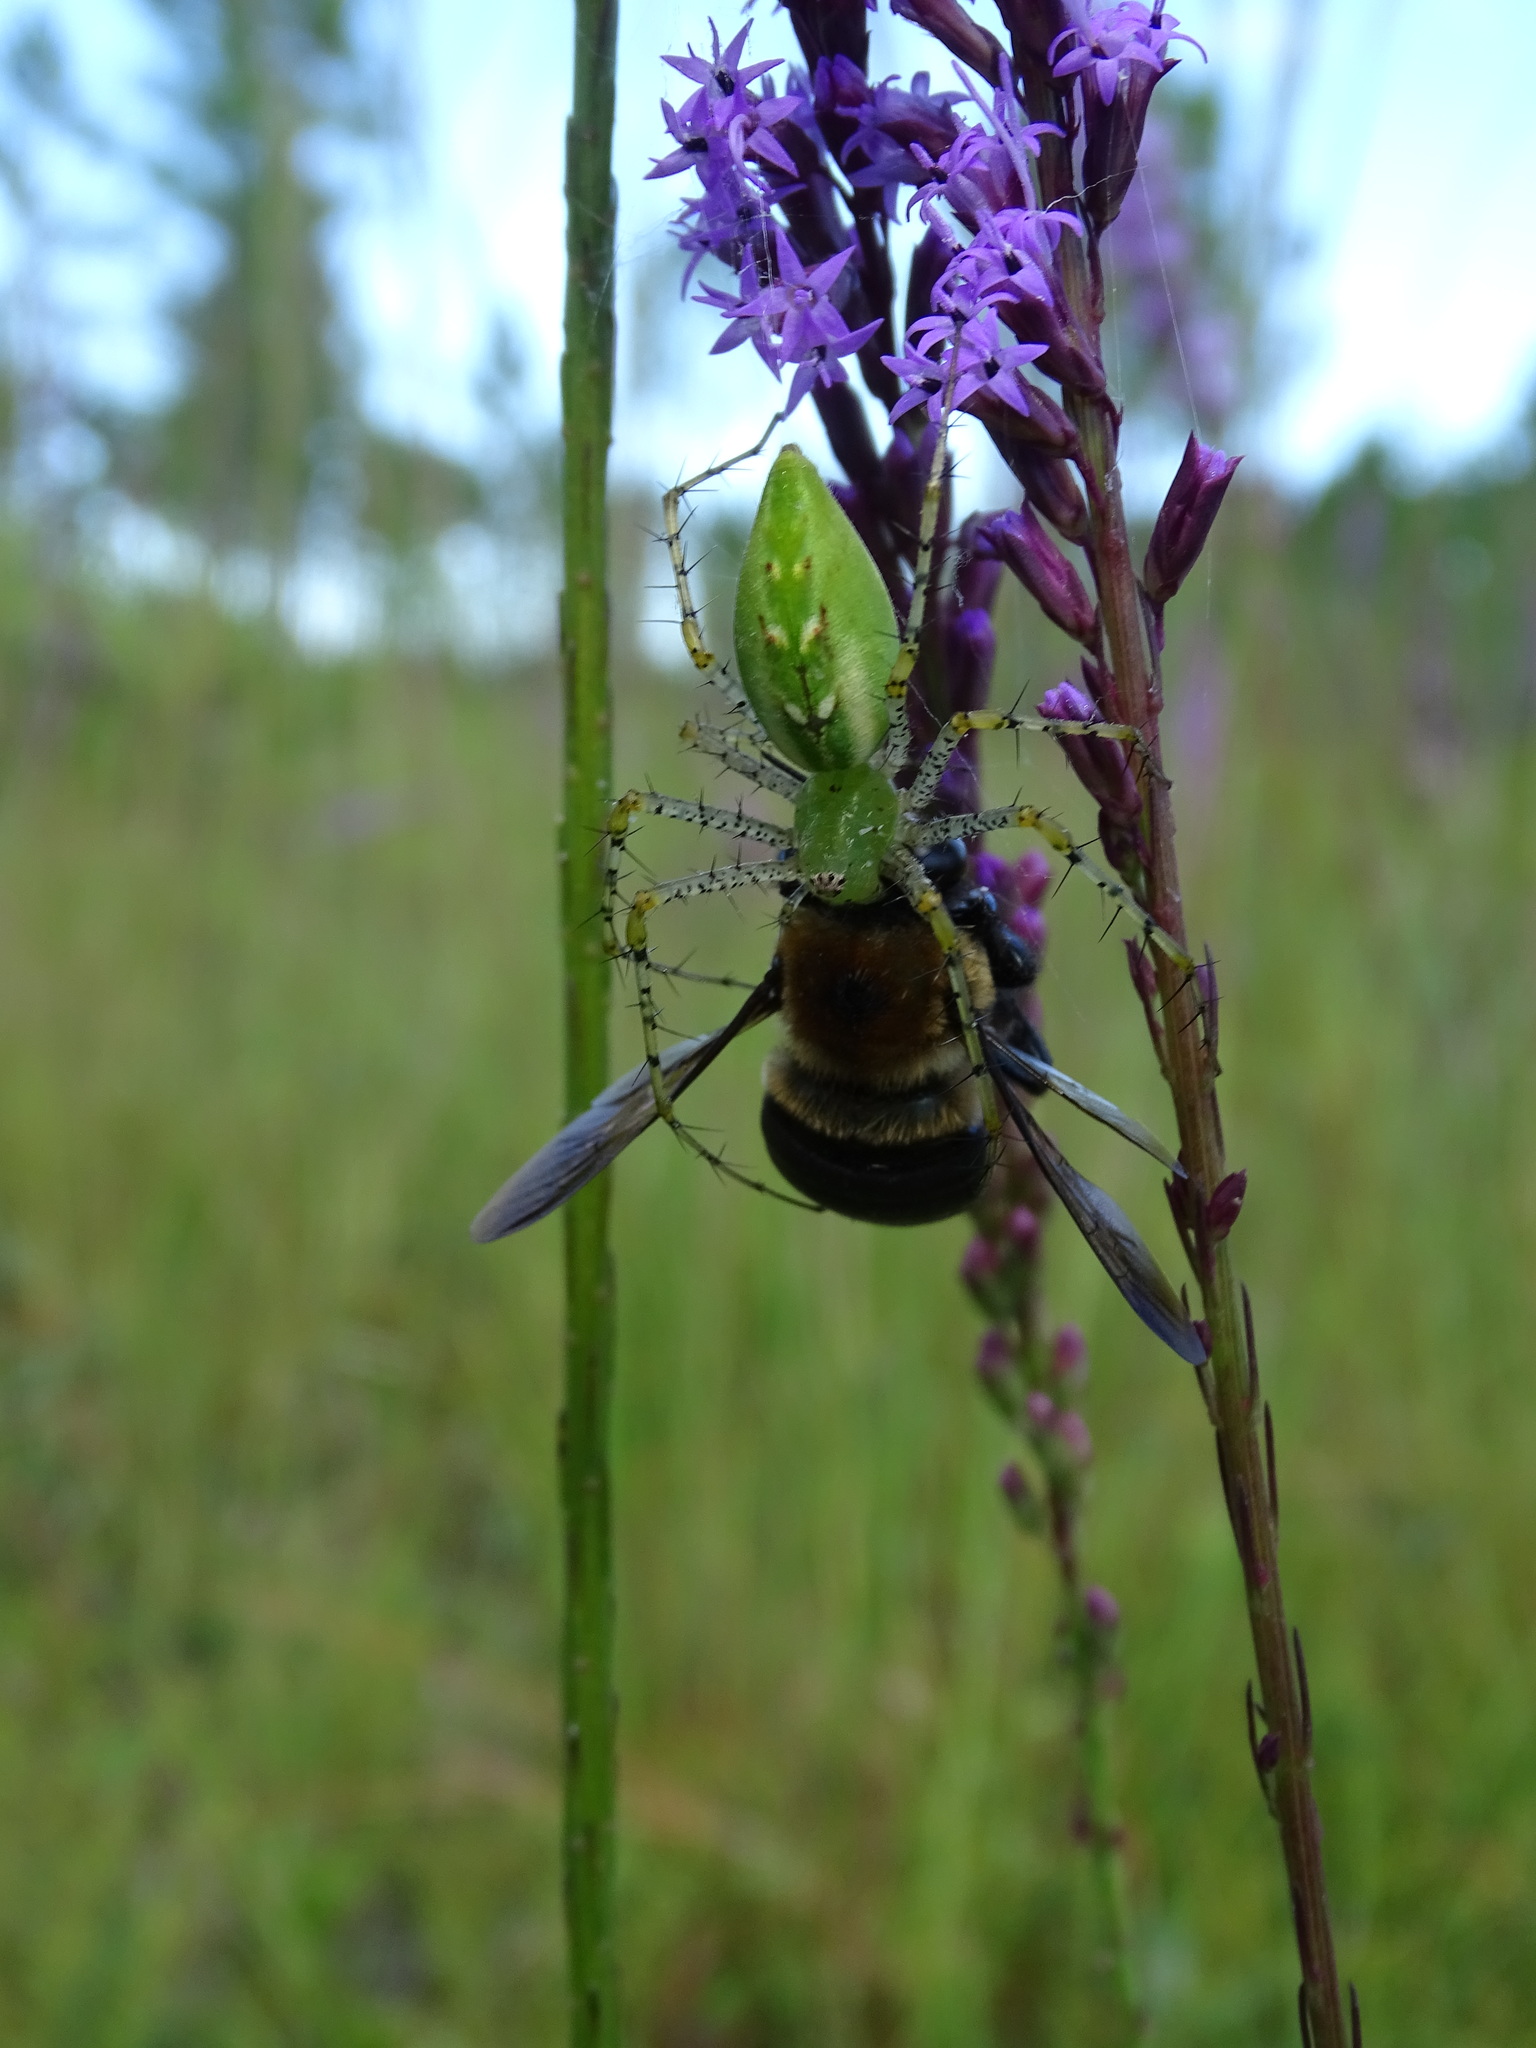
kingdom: Animalia
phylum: Arthropoda
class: Insecta
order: Hymenoptera
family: Apidae
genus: Xylocopa
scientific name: Xylocopa virginica
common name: Carpenter bee
